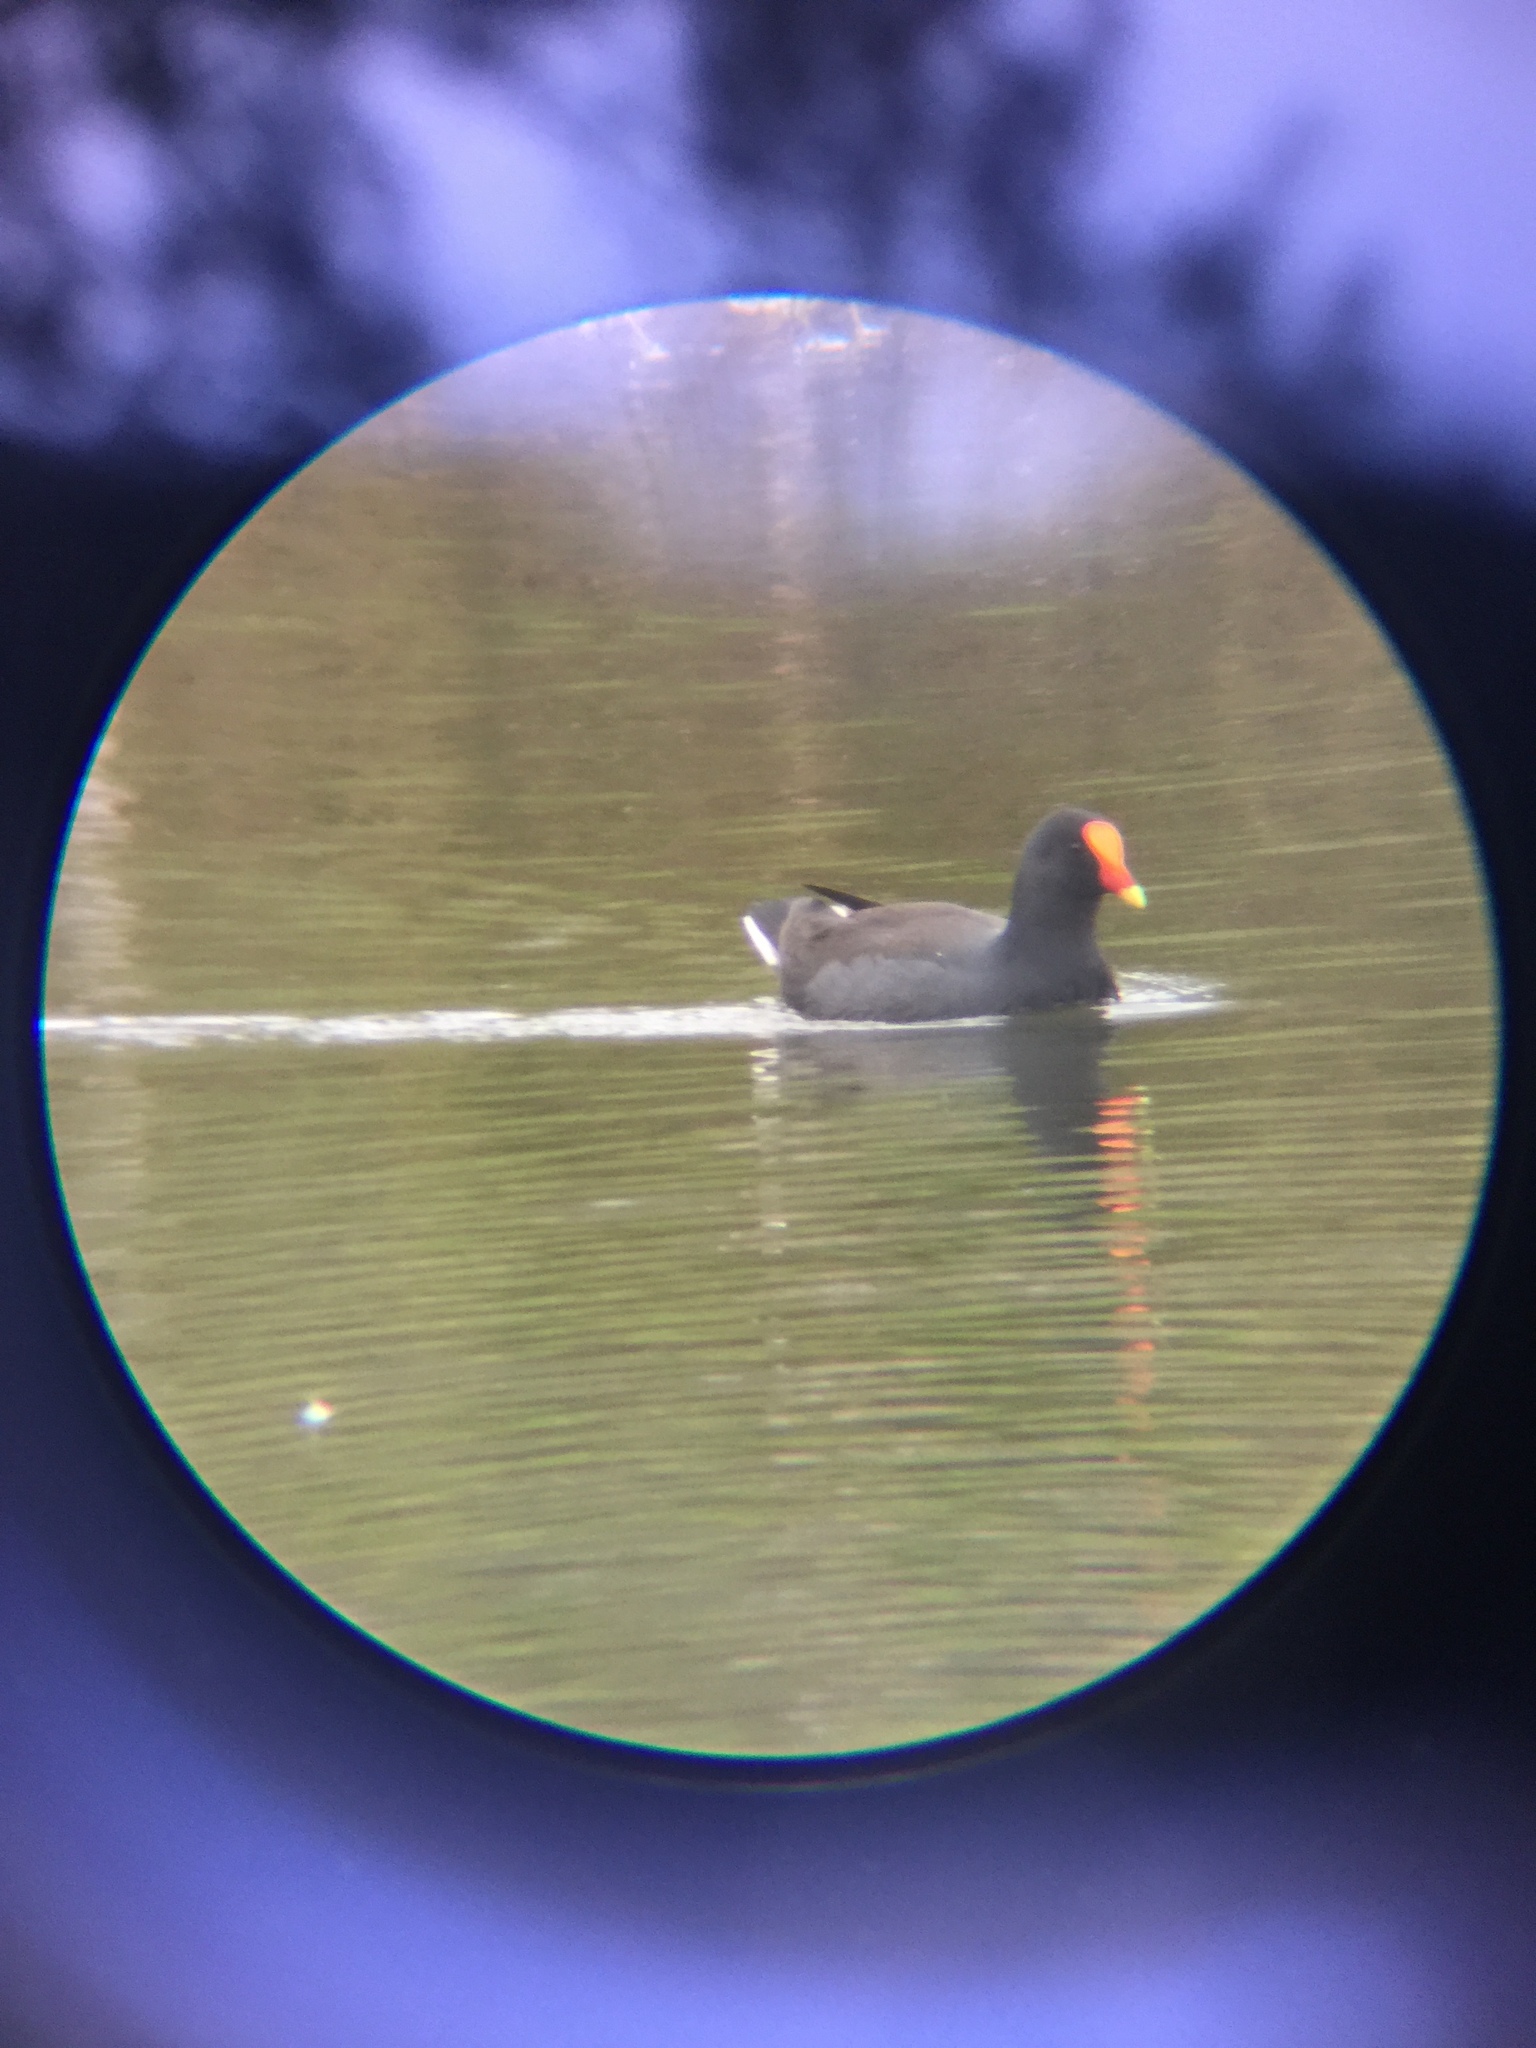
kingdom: Animalia
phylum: Chordata
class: Aves
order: Gruiformes
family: Rallidae
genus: Gallinula
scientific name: Gallinula tenebrosa
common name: Dusky moorhen
